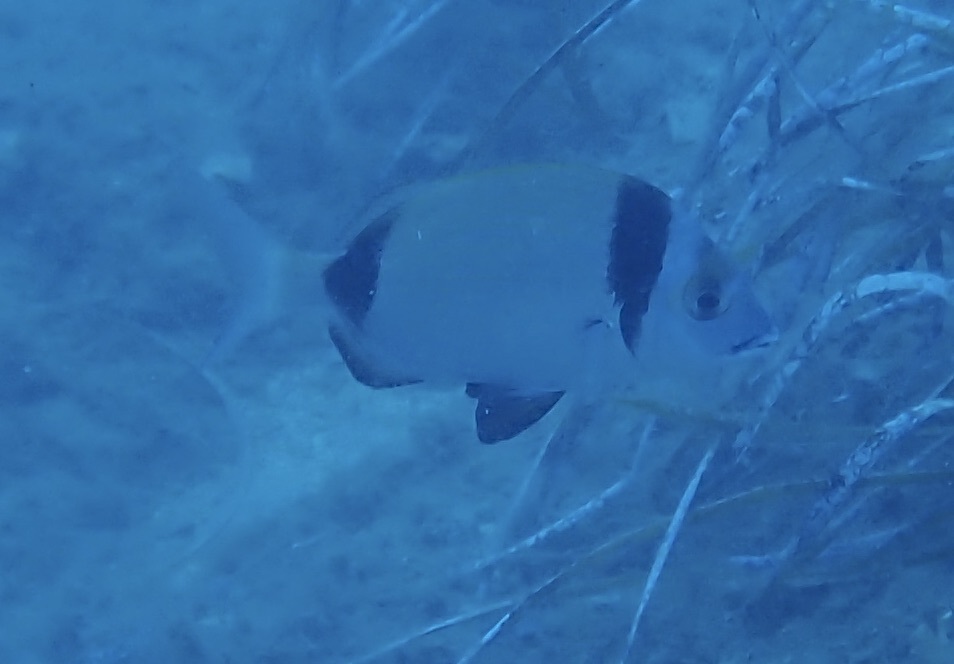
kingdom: Animalia
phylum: Chordata
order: Perciformes
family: Sparidae
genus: Diplodus
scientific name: Diplodus vulgaris
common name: Common two-banded seabream
